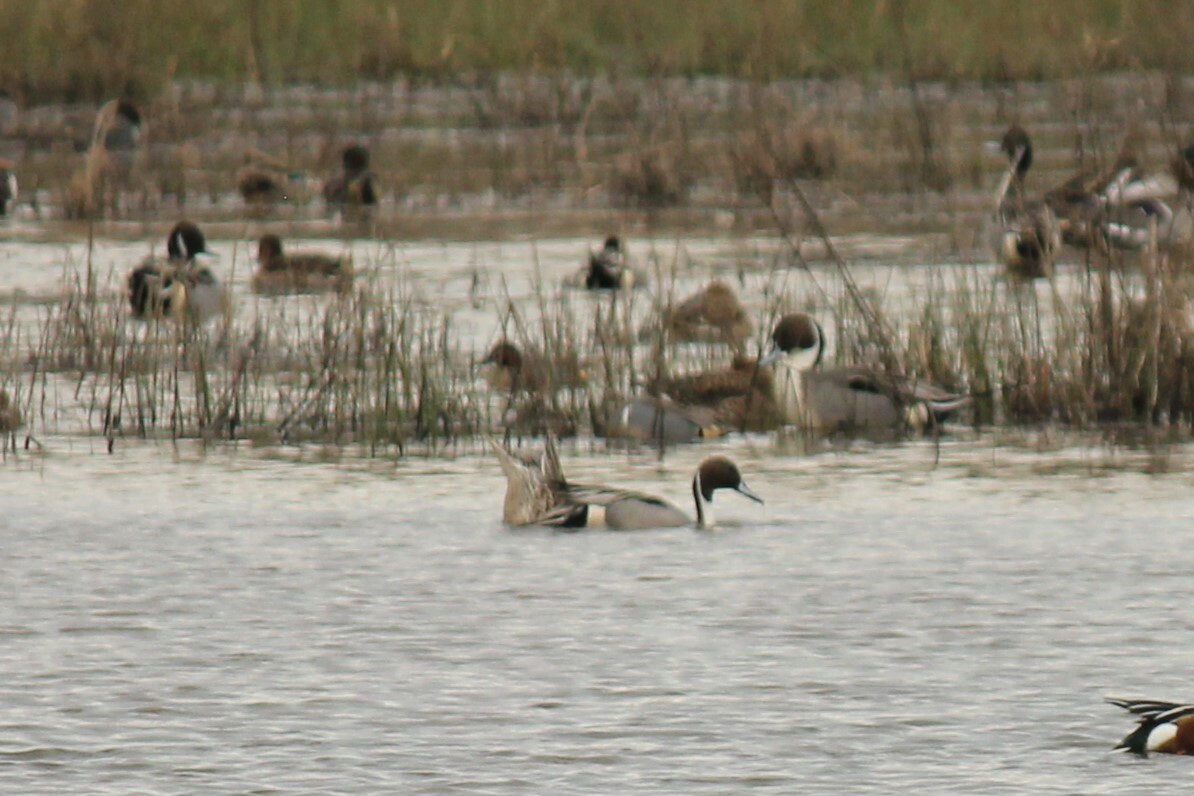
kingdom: Animalia
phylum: Chordata
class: Aves
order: Anseriformes
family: Anatidae
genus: Anas
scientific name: Anas acuta
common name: Northern pintail
